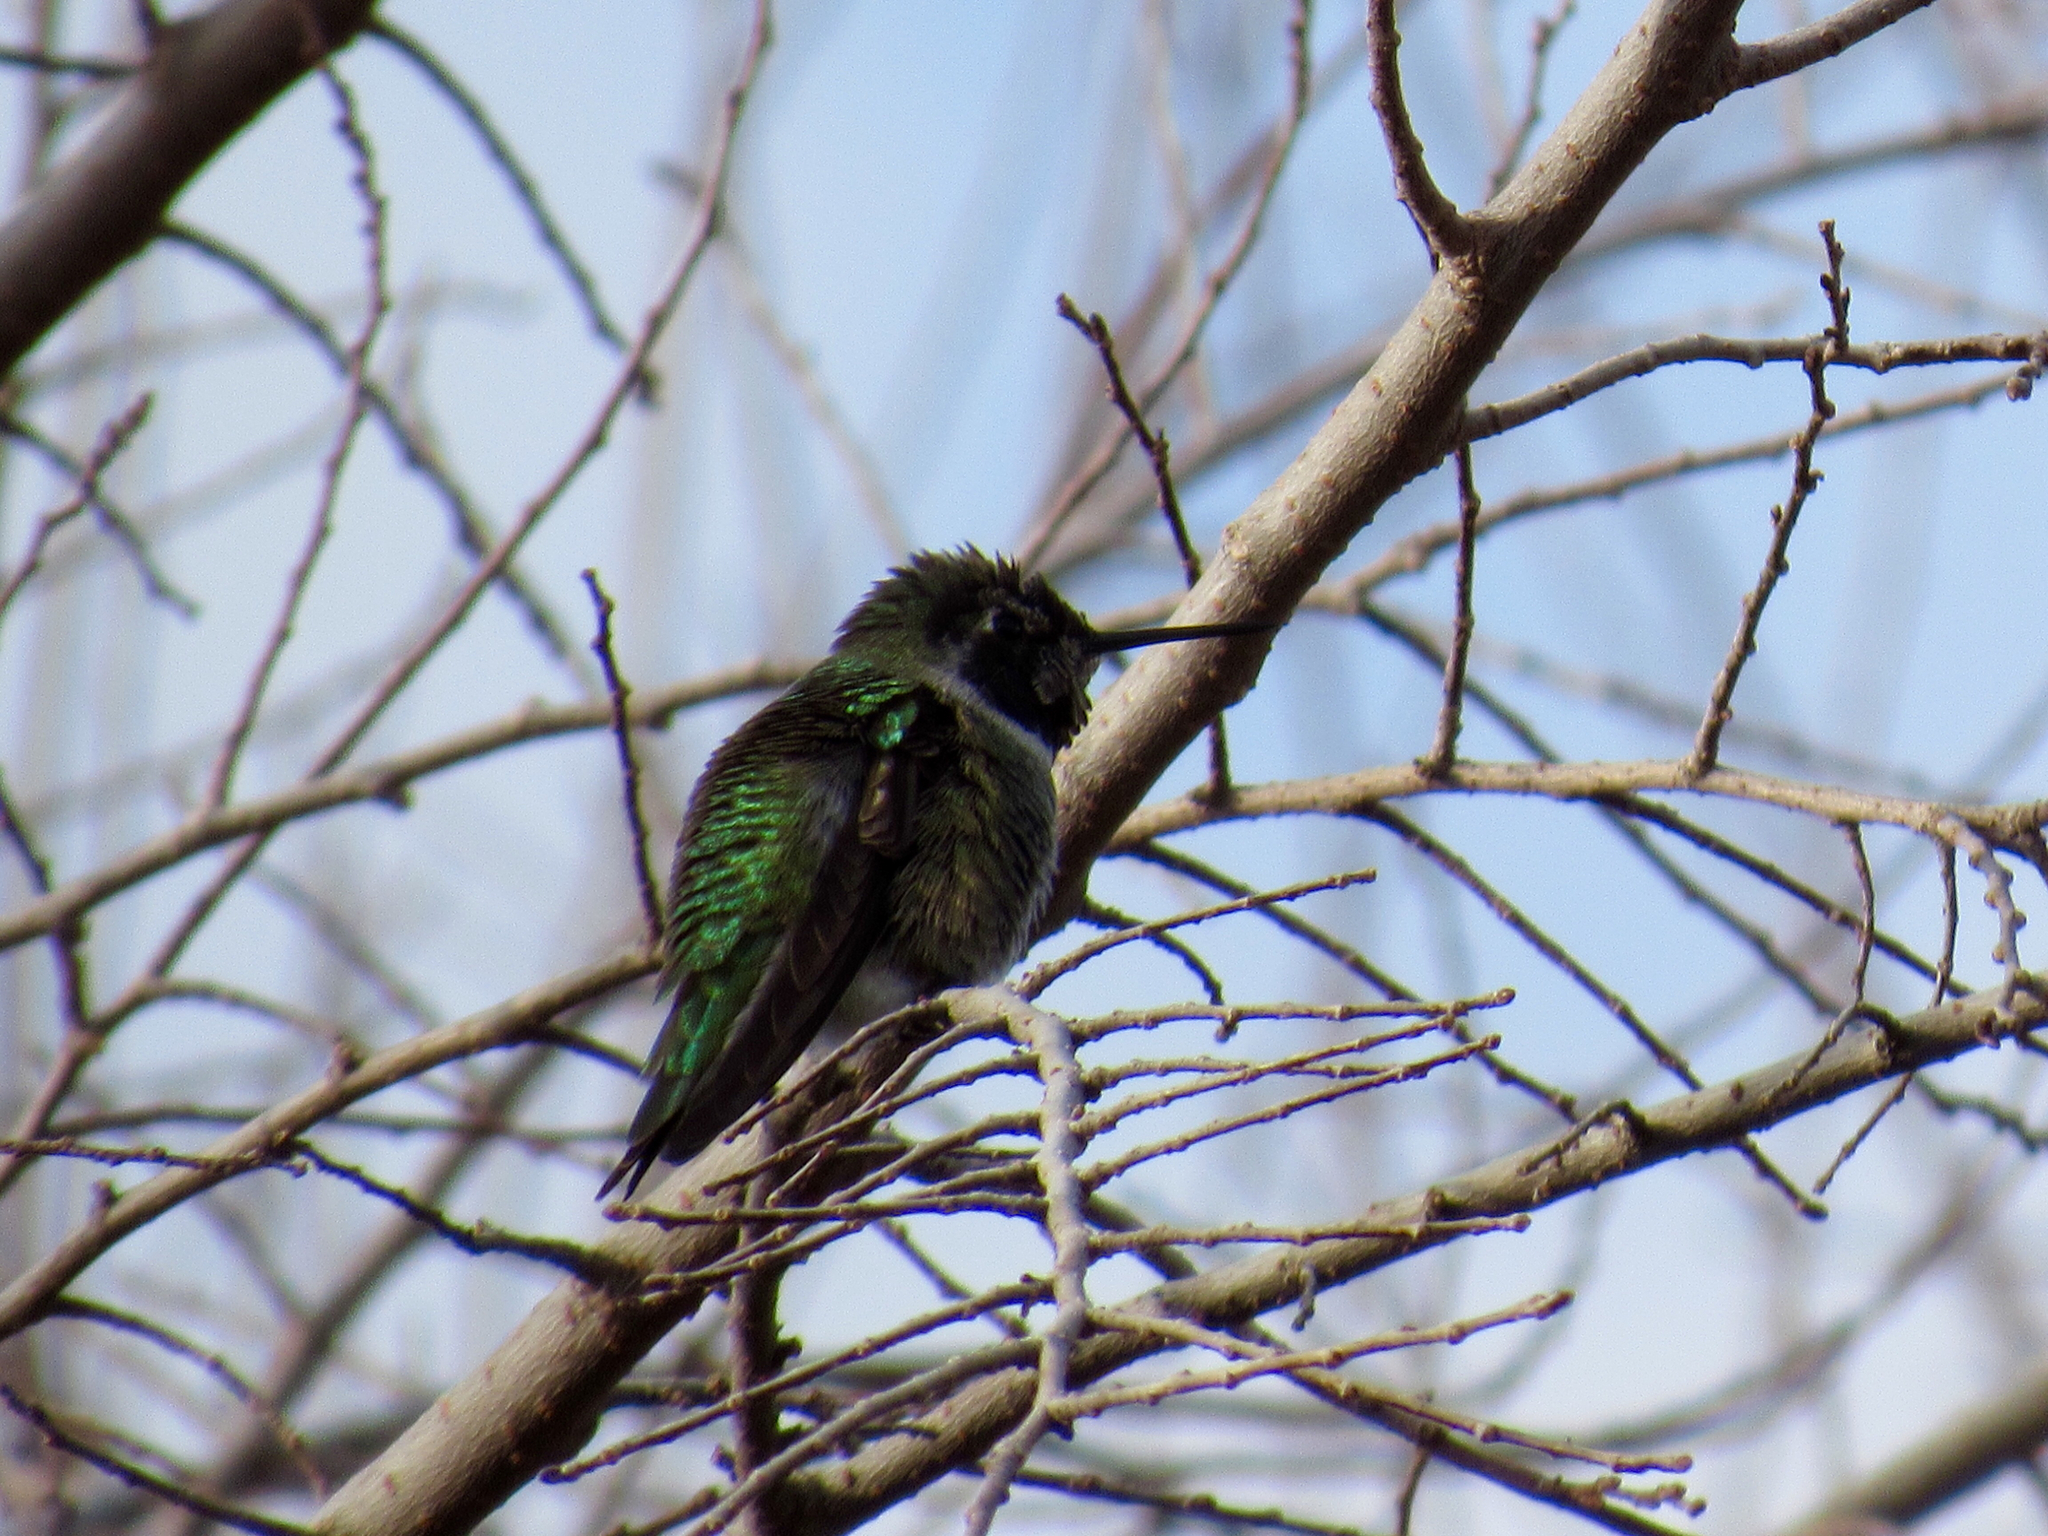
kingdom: Animalia
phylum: Chordata
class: Aves
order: Apodiformes
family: Trochilidae
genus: Calypte
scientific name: Calypte anna
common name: Anna's hummingbird
